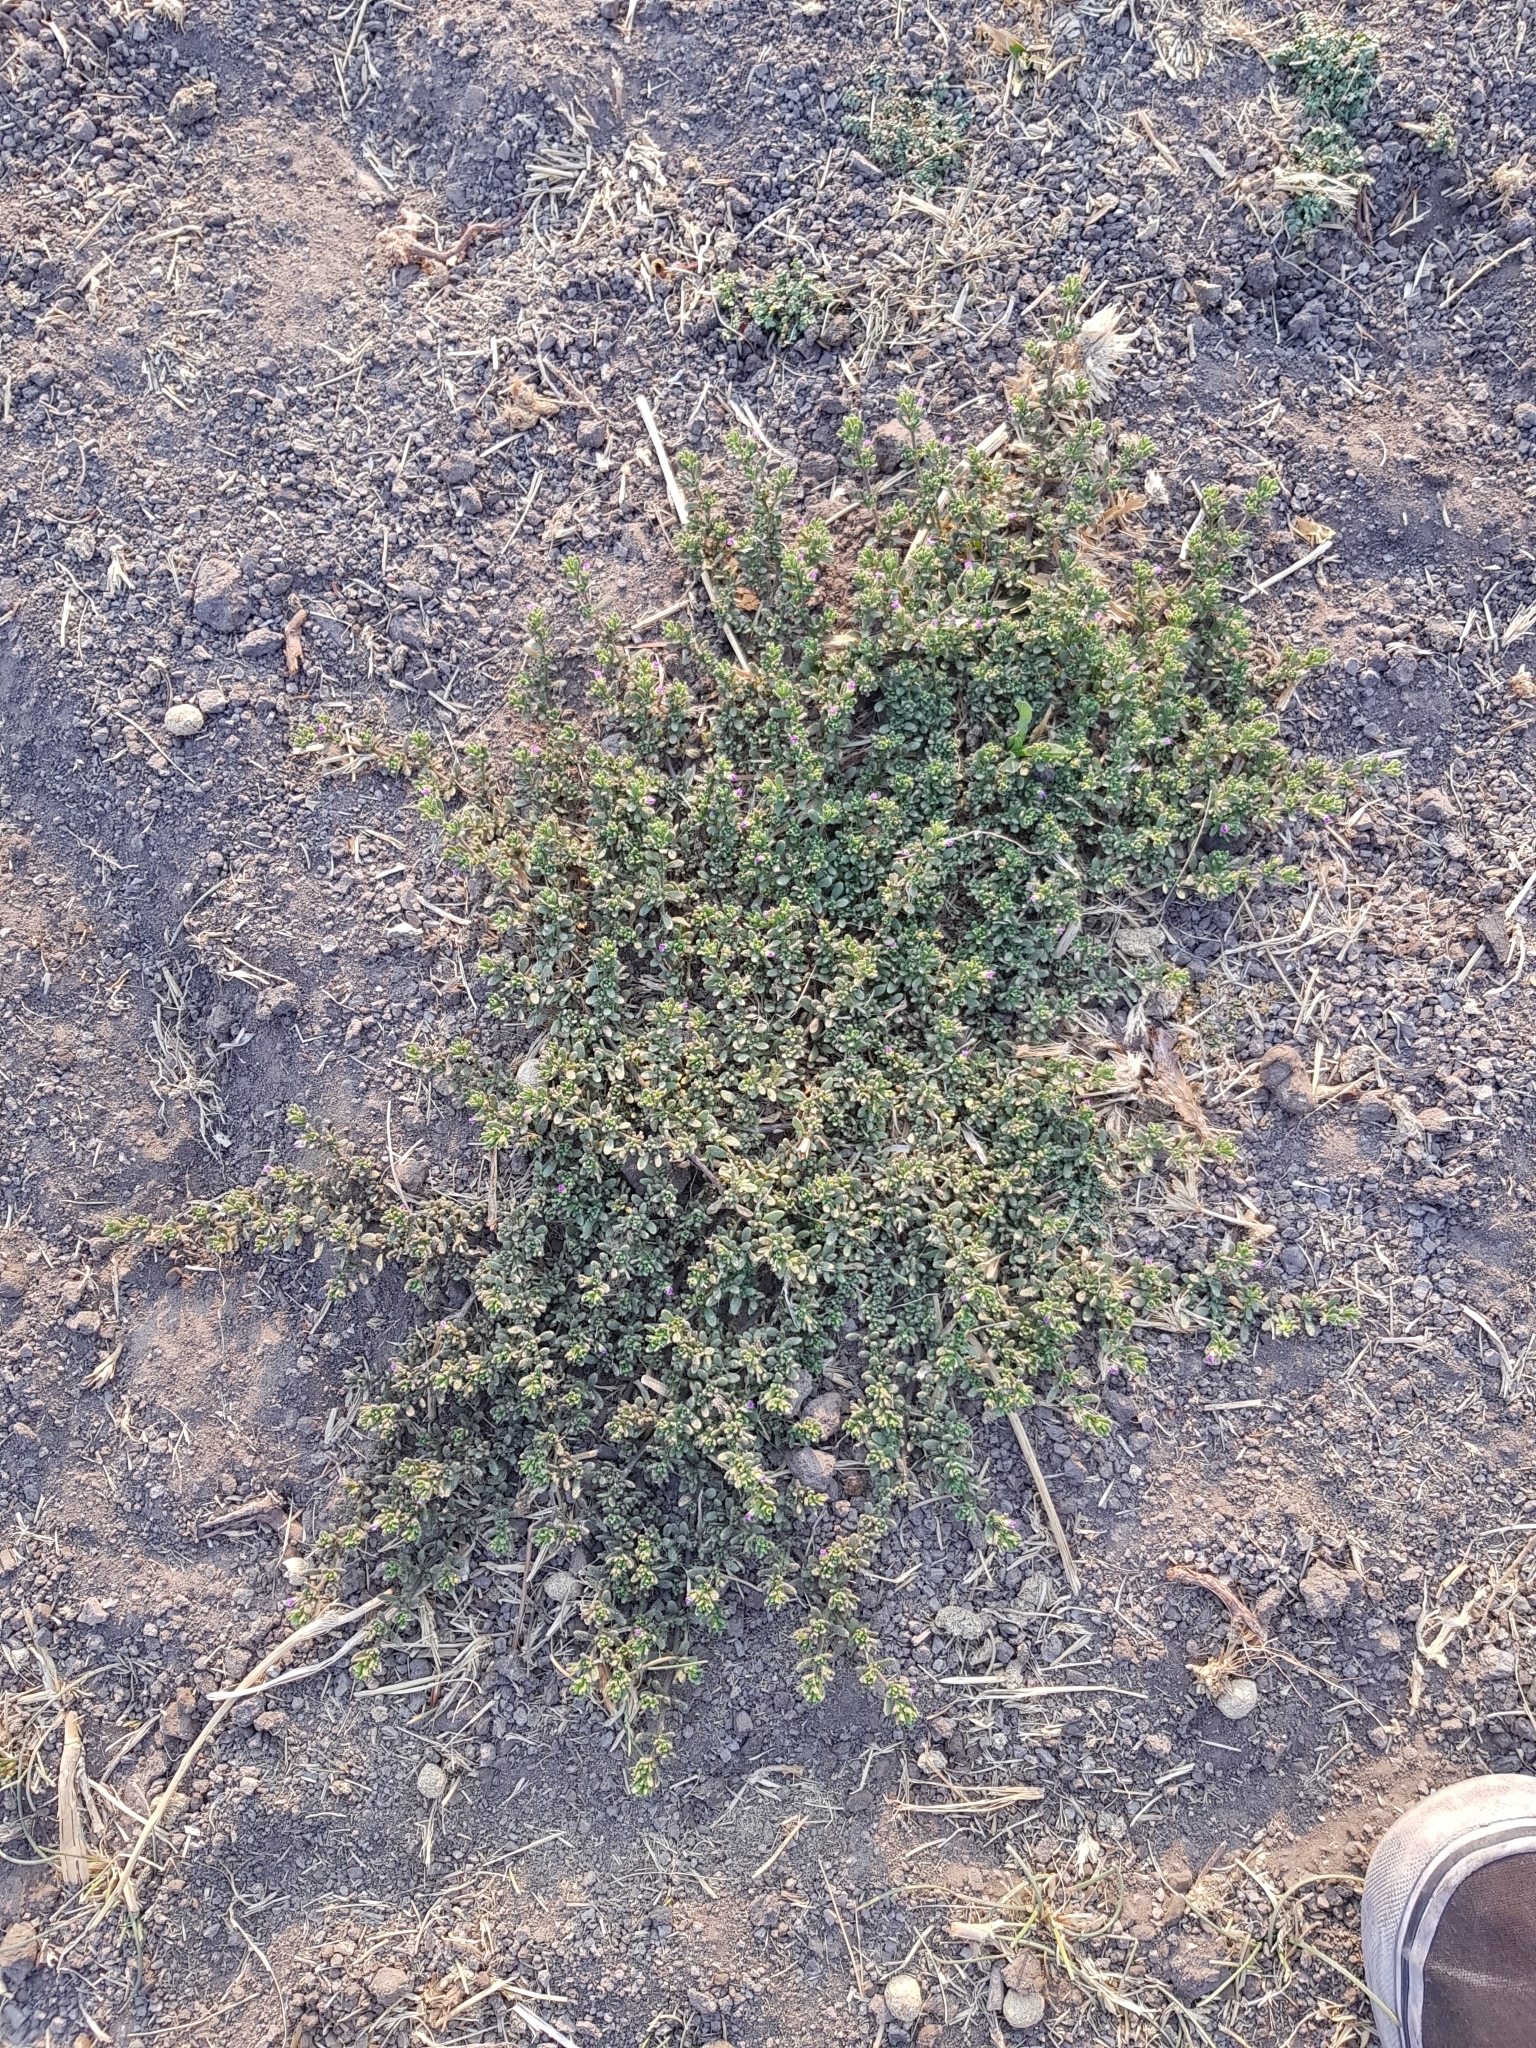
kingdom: Plantae
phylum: Tracheophyta
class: Magnoliopsida
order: Solanales
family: Solanaceae
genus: Calibrachoa
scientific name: Calibrachoa parviflora
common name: Seaside petunia
